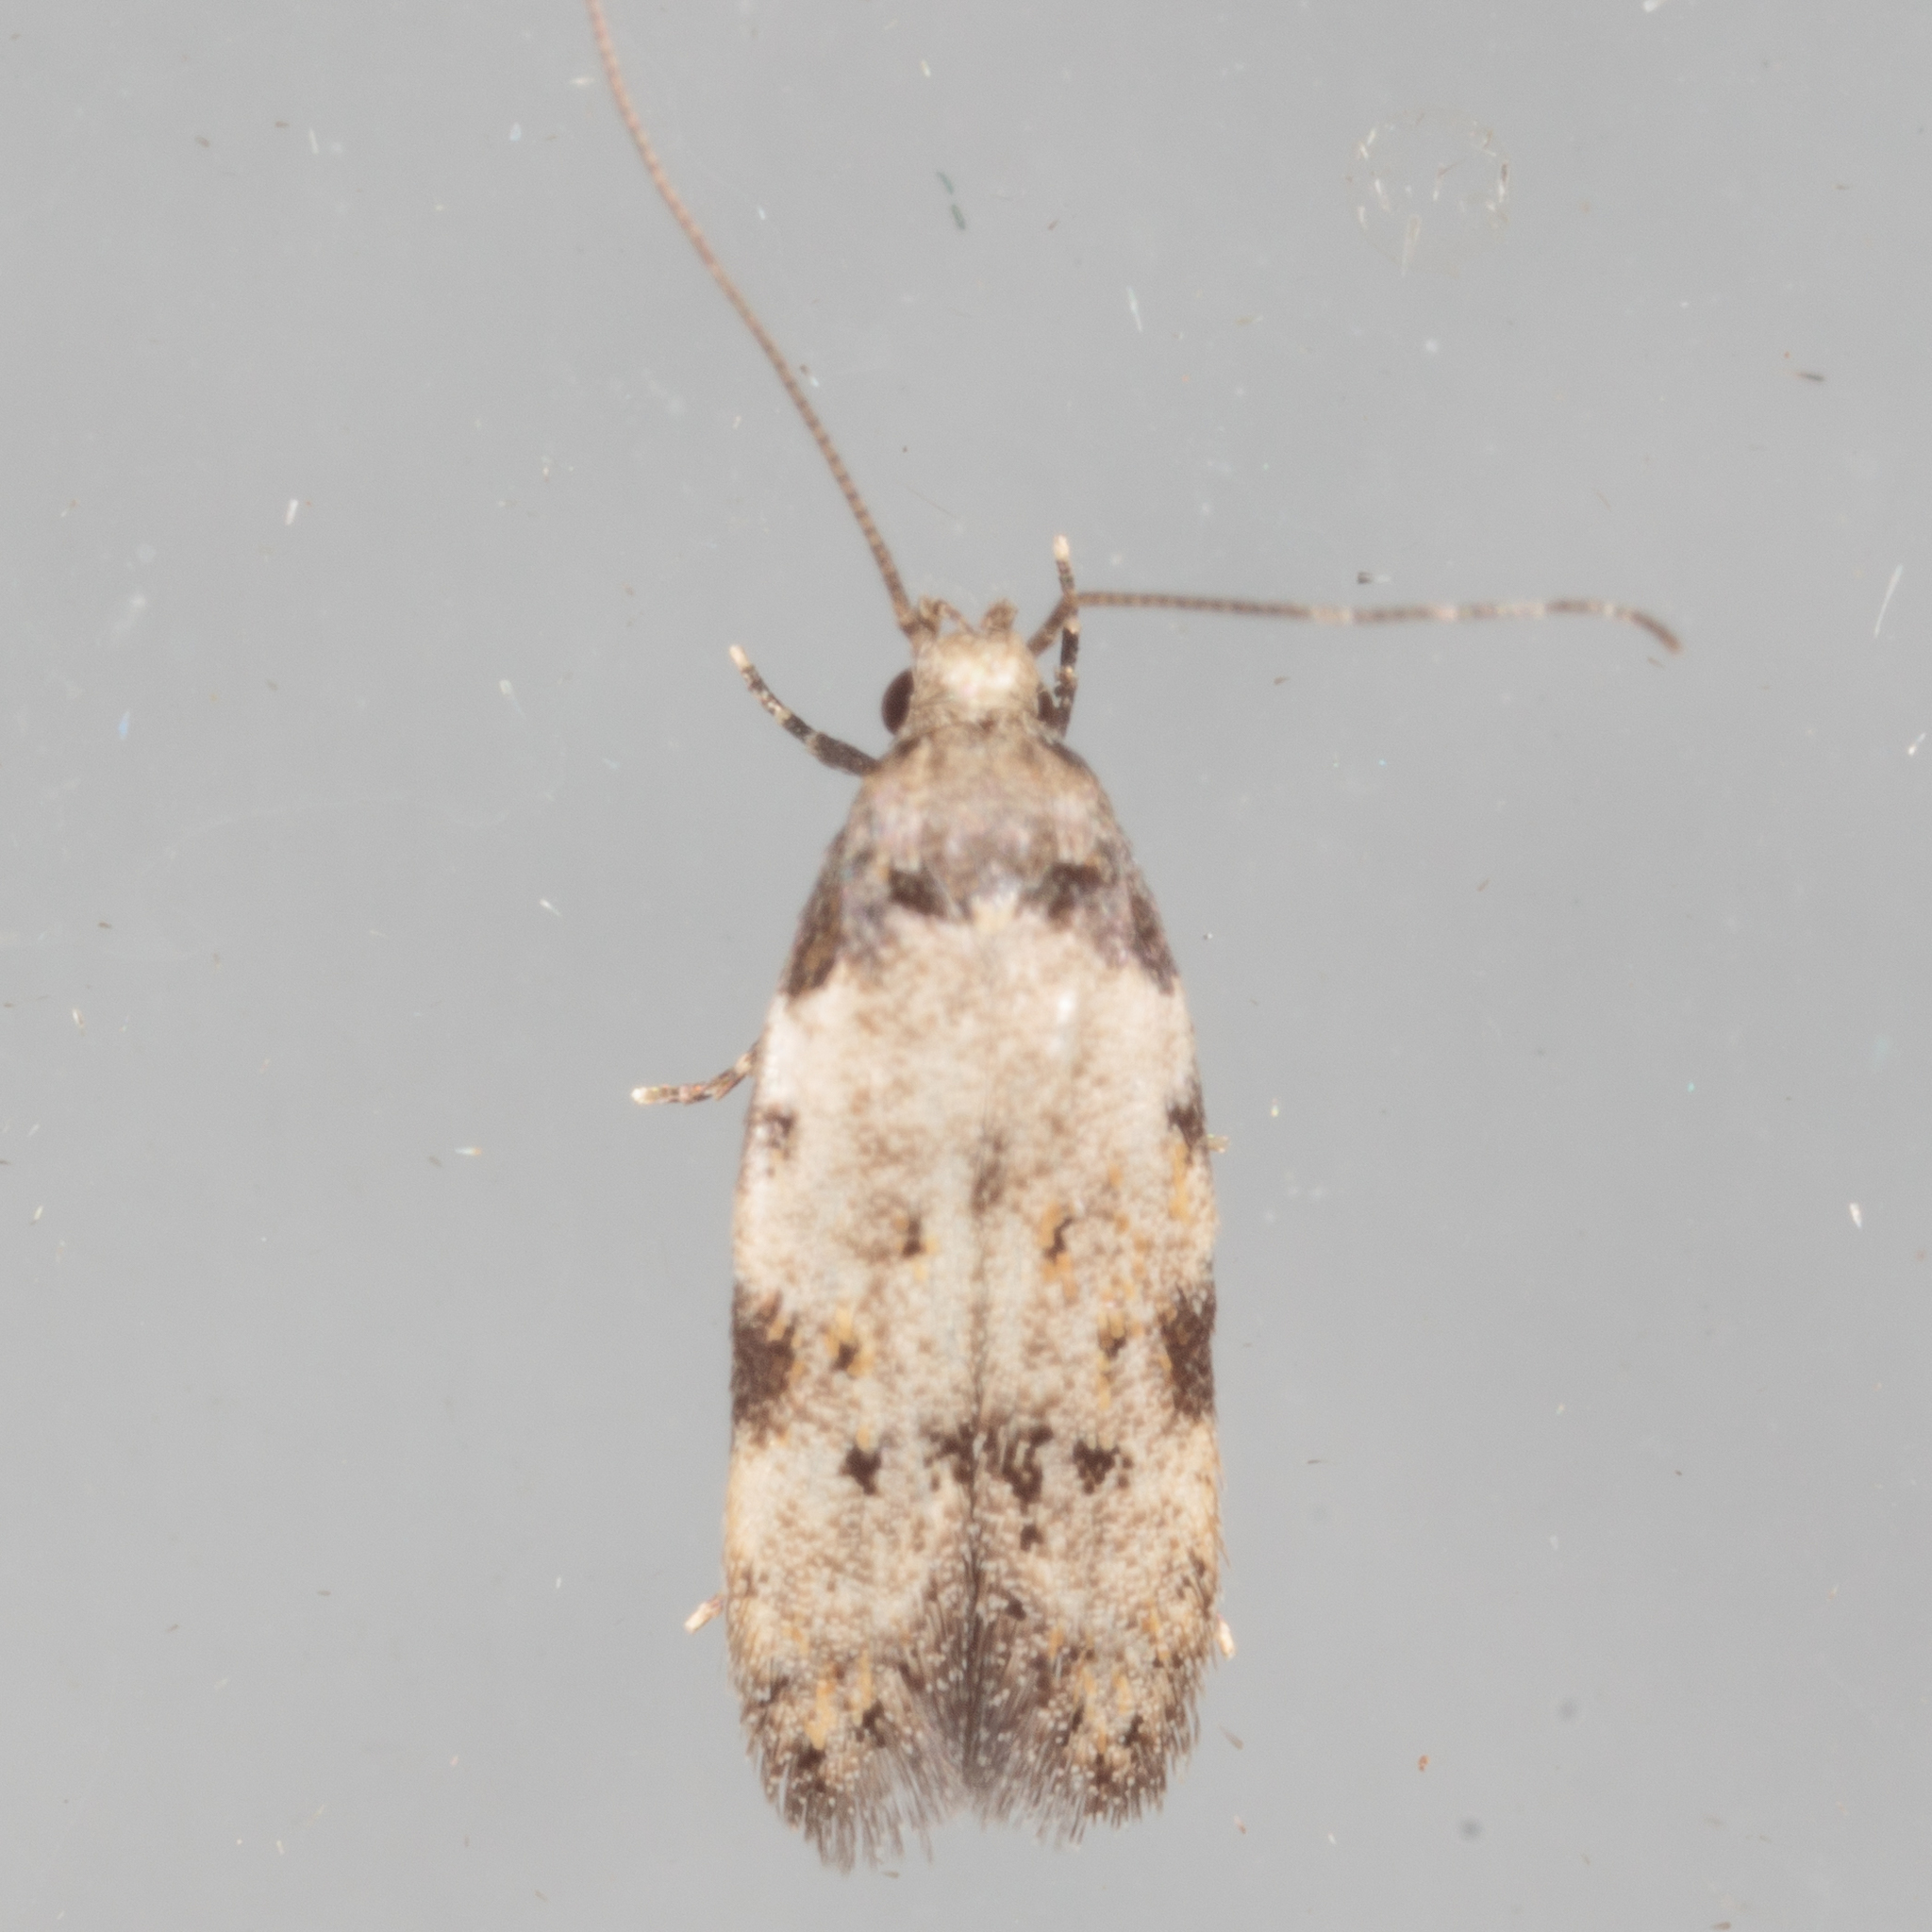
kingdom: Animalia
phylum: Arthropoda
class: Insecta
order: Lepidoptera
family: Autostichidae
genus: Taygete
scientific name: Taygete attributella
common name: Triangle-marked twirler moth
